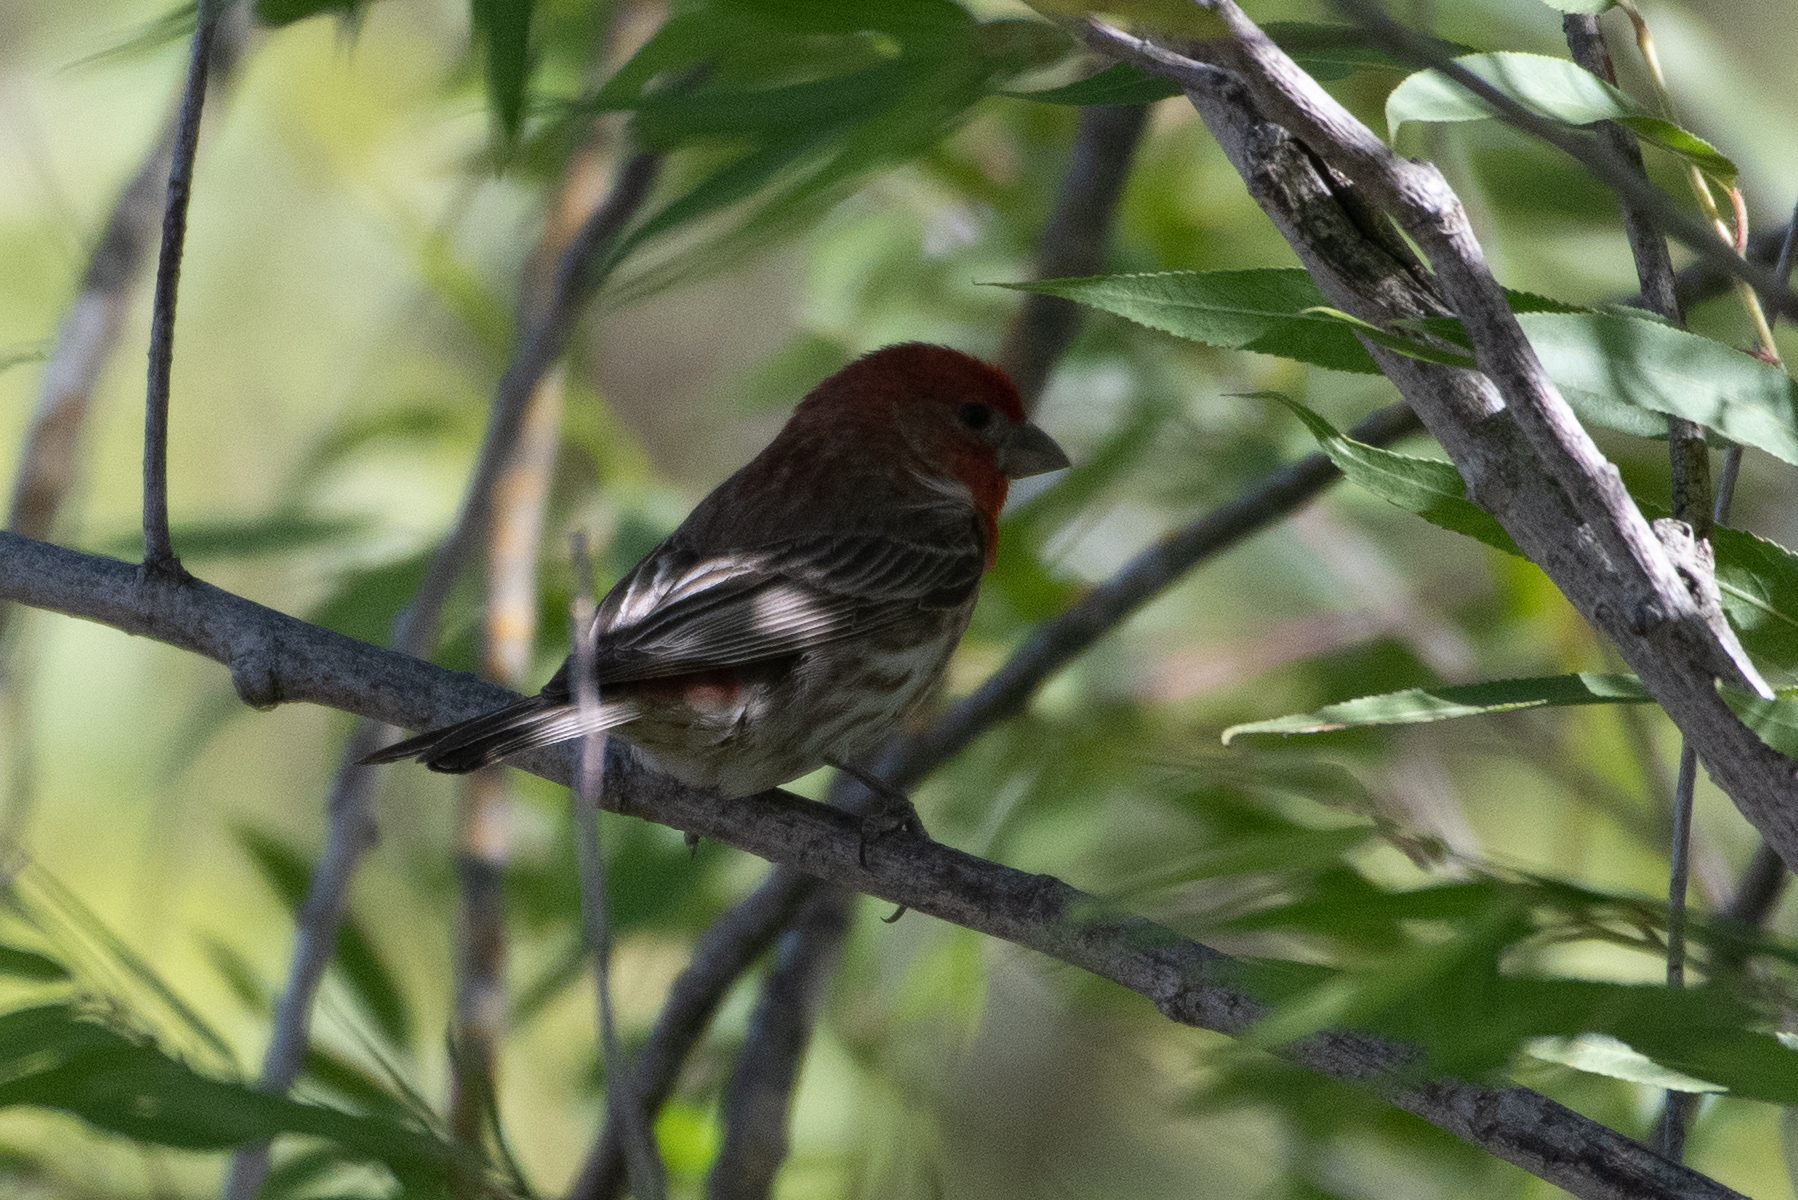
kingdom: Animalia
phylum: Chordata
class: Aves
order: Passeriformes
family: Fringillidae
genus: Haemorhous
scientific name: Haemorhous mexicanus
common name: House finch
